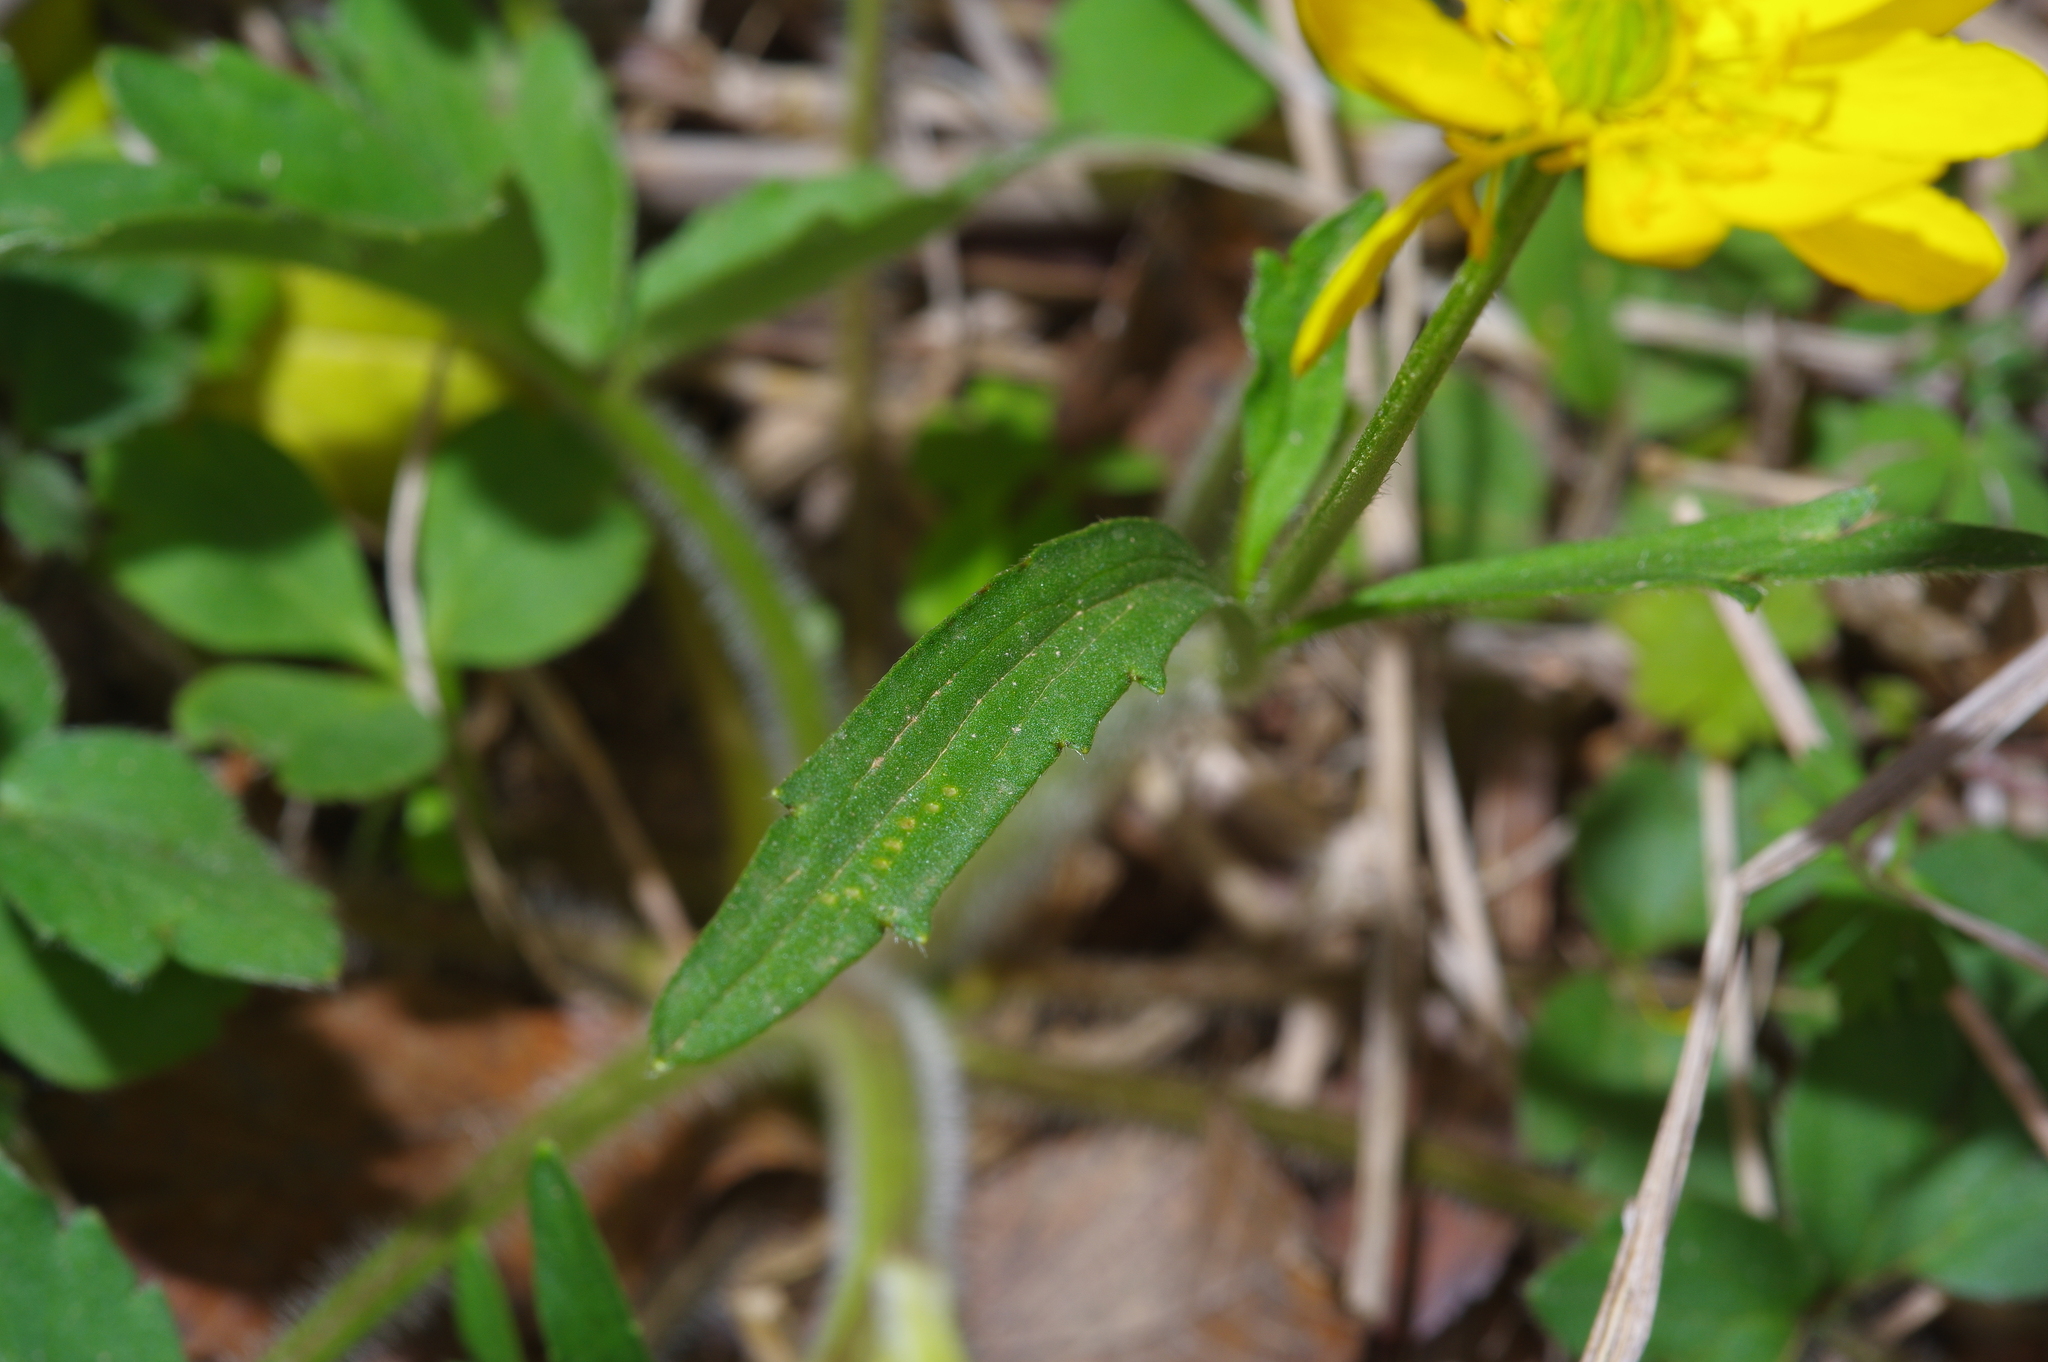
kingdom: Plantae
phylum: Tracheophyta
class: Magnoliopsida
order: Ranunculales
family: Ranunculaceae
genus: Ranunculus
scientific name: Ranunculus macranthus
